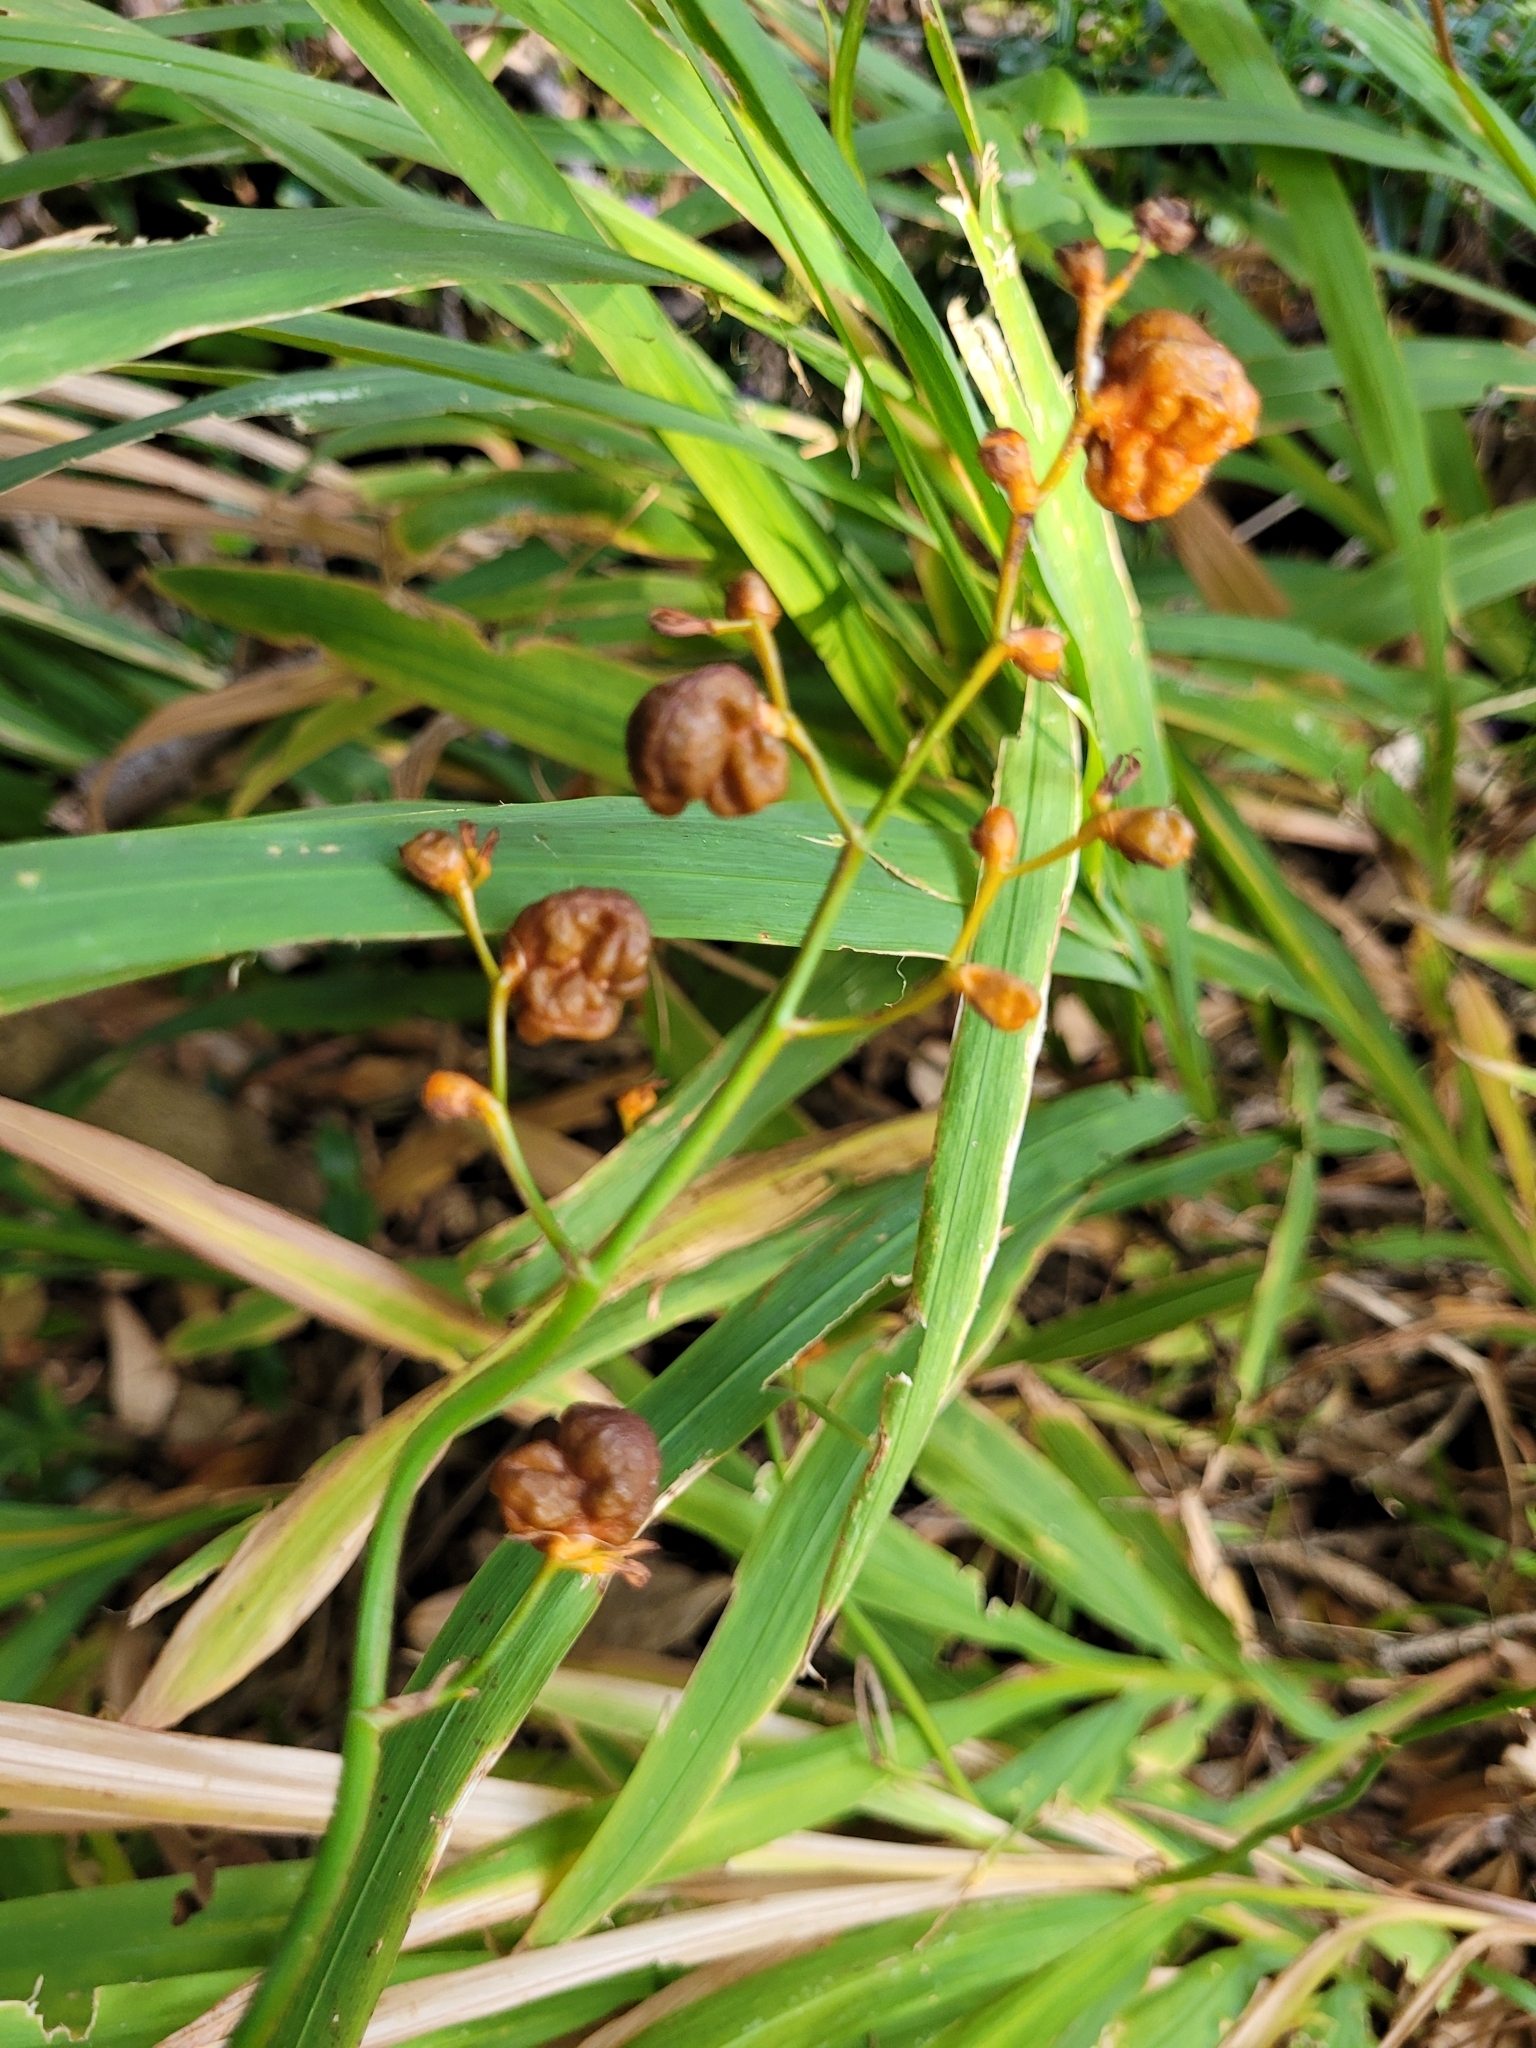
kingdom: Plantae
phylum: Tracheophyta
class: Liliopsida
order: Asparagales
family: Iridaceae
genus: Crocosmia
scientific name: Crocosmia crocosmiiflora
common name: Montbretia
